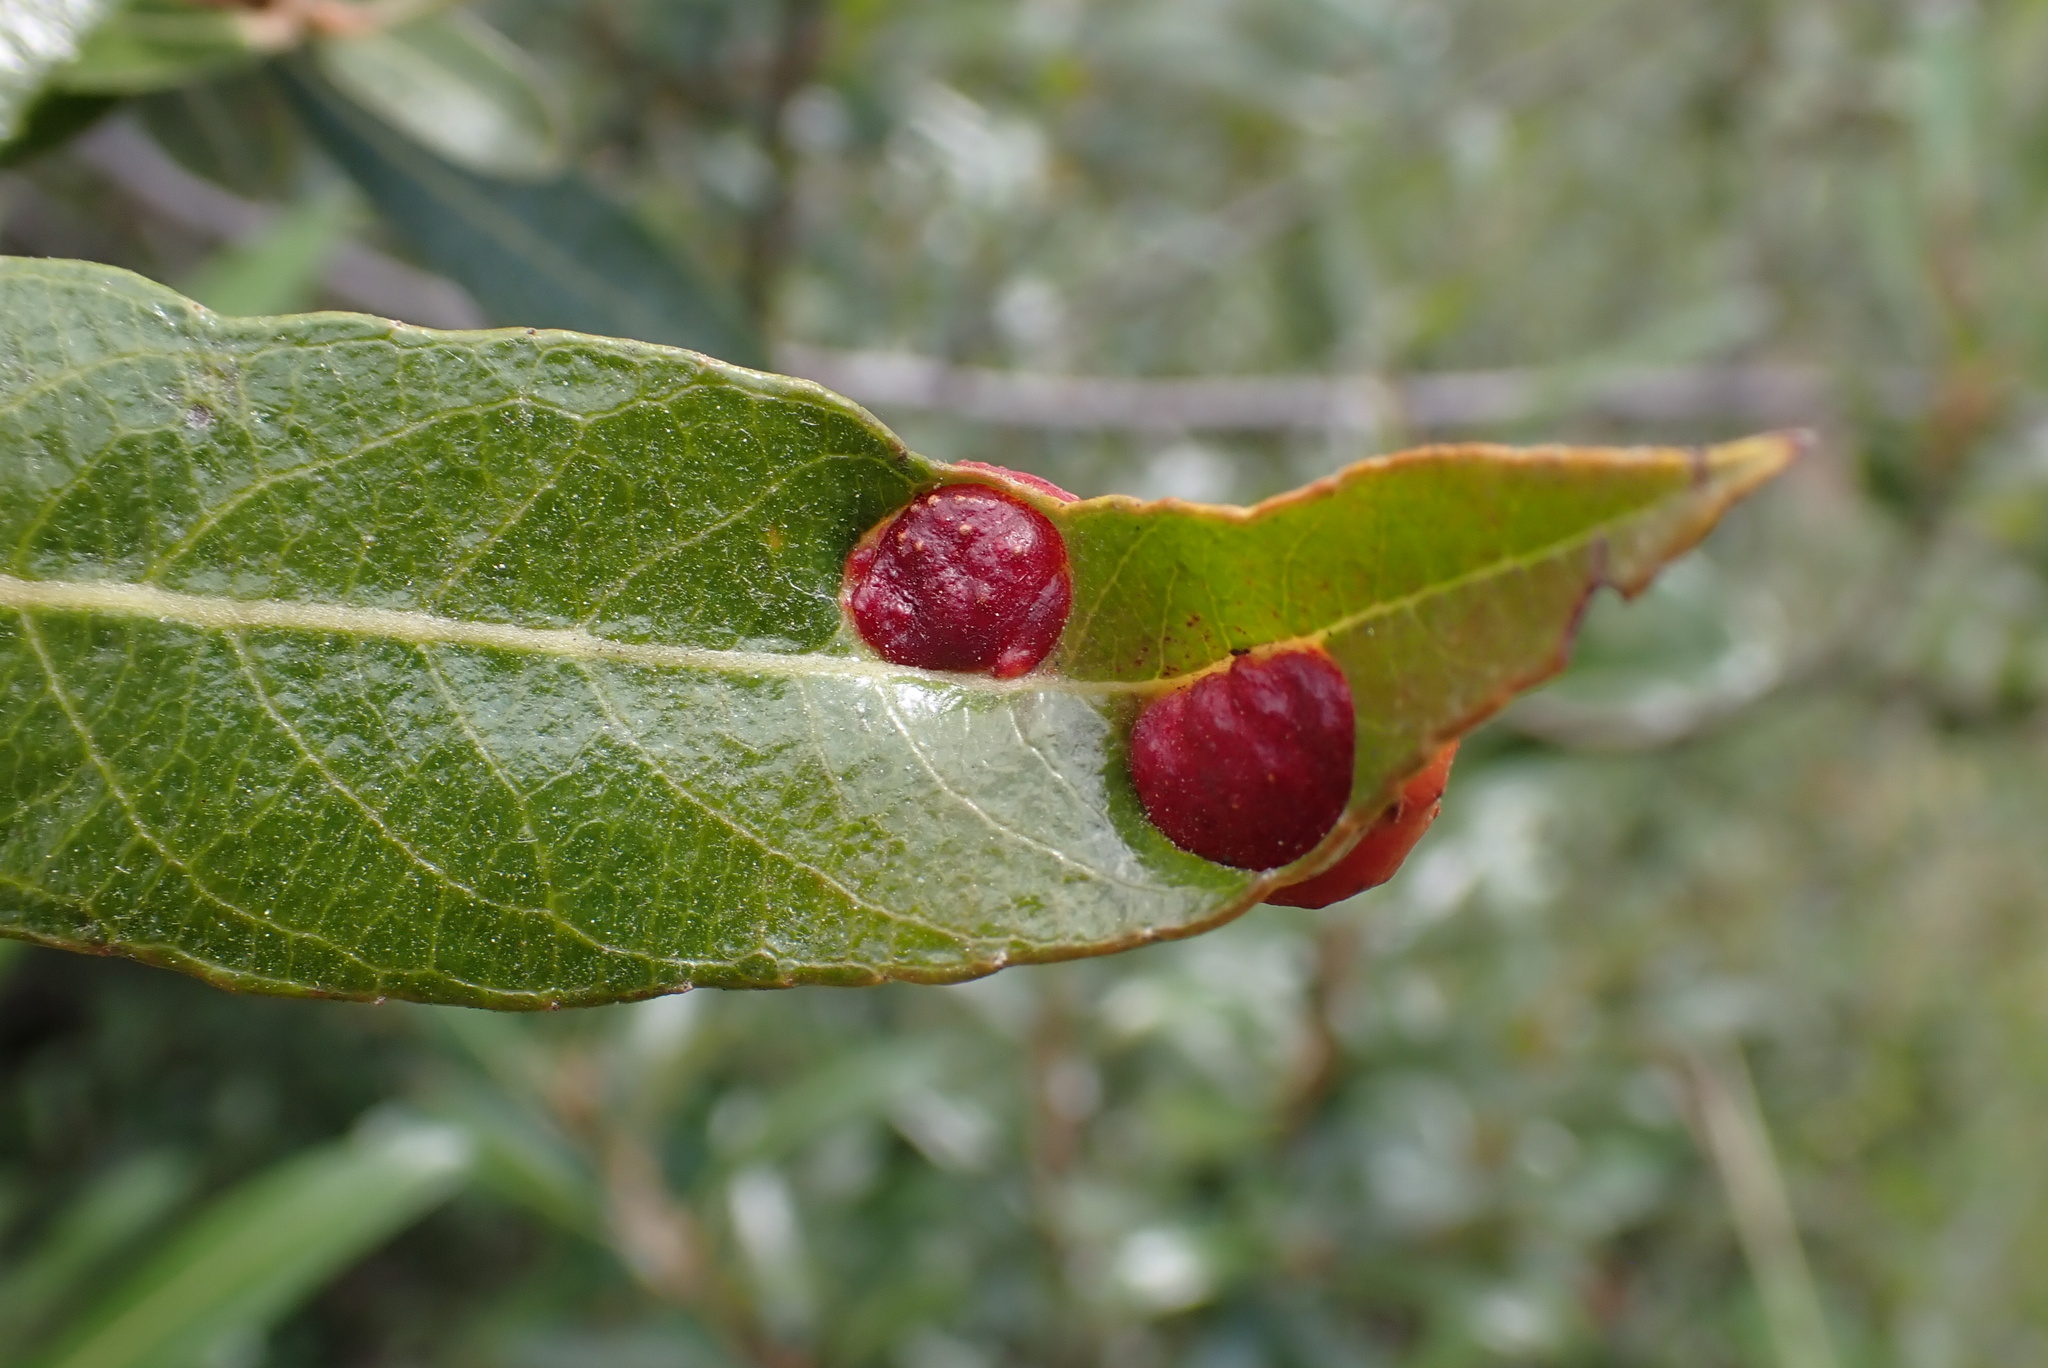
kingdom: Animalia
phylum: Arthropoda
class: Insecta
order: Hymenoptera
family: Tenthredinidae
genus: Euura
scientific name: Euura
